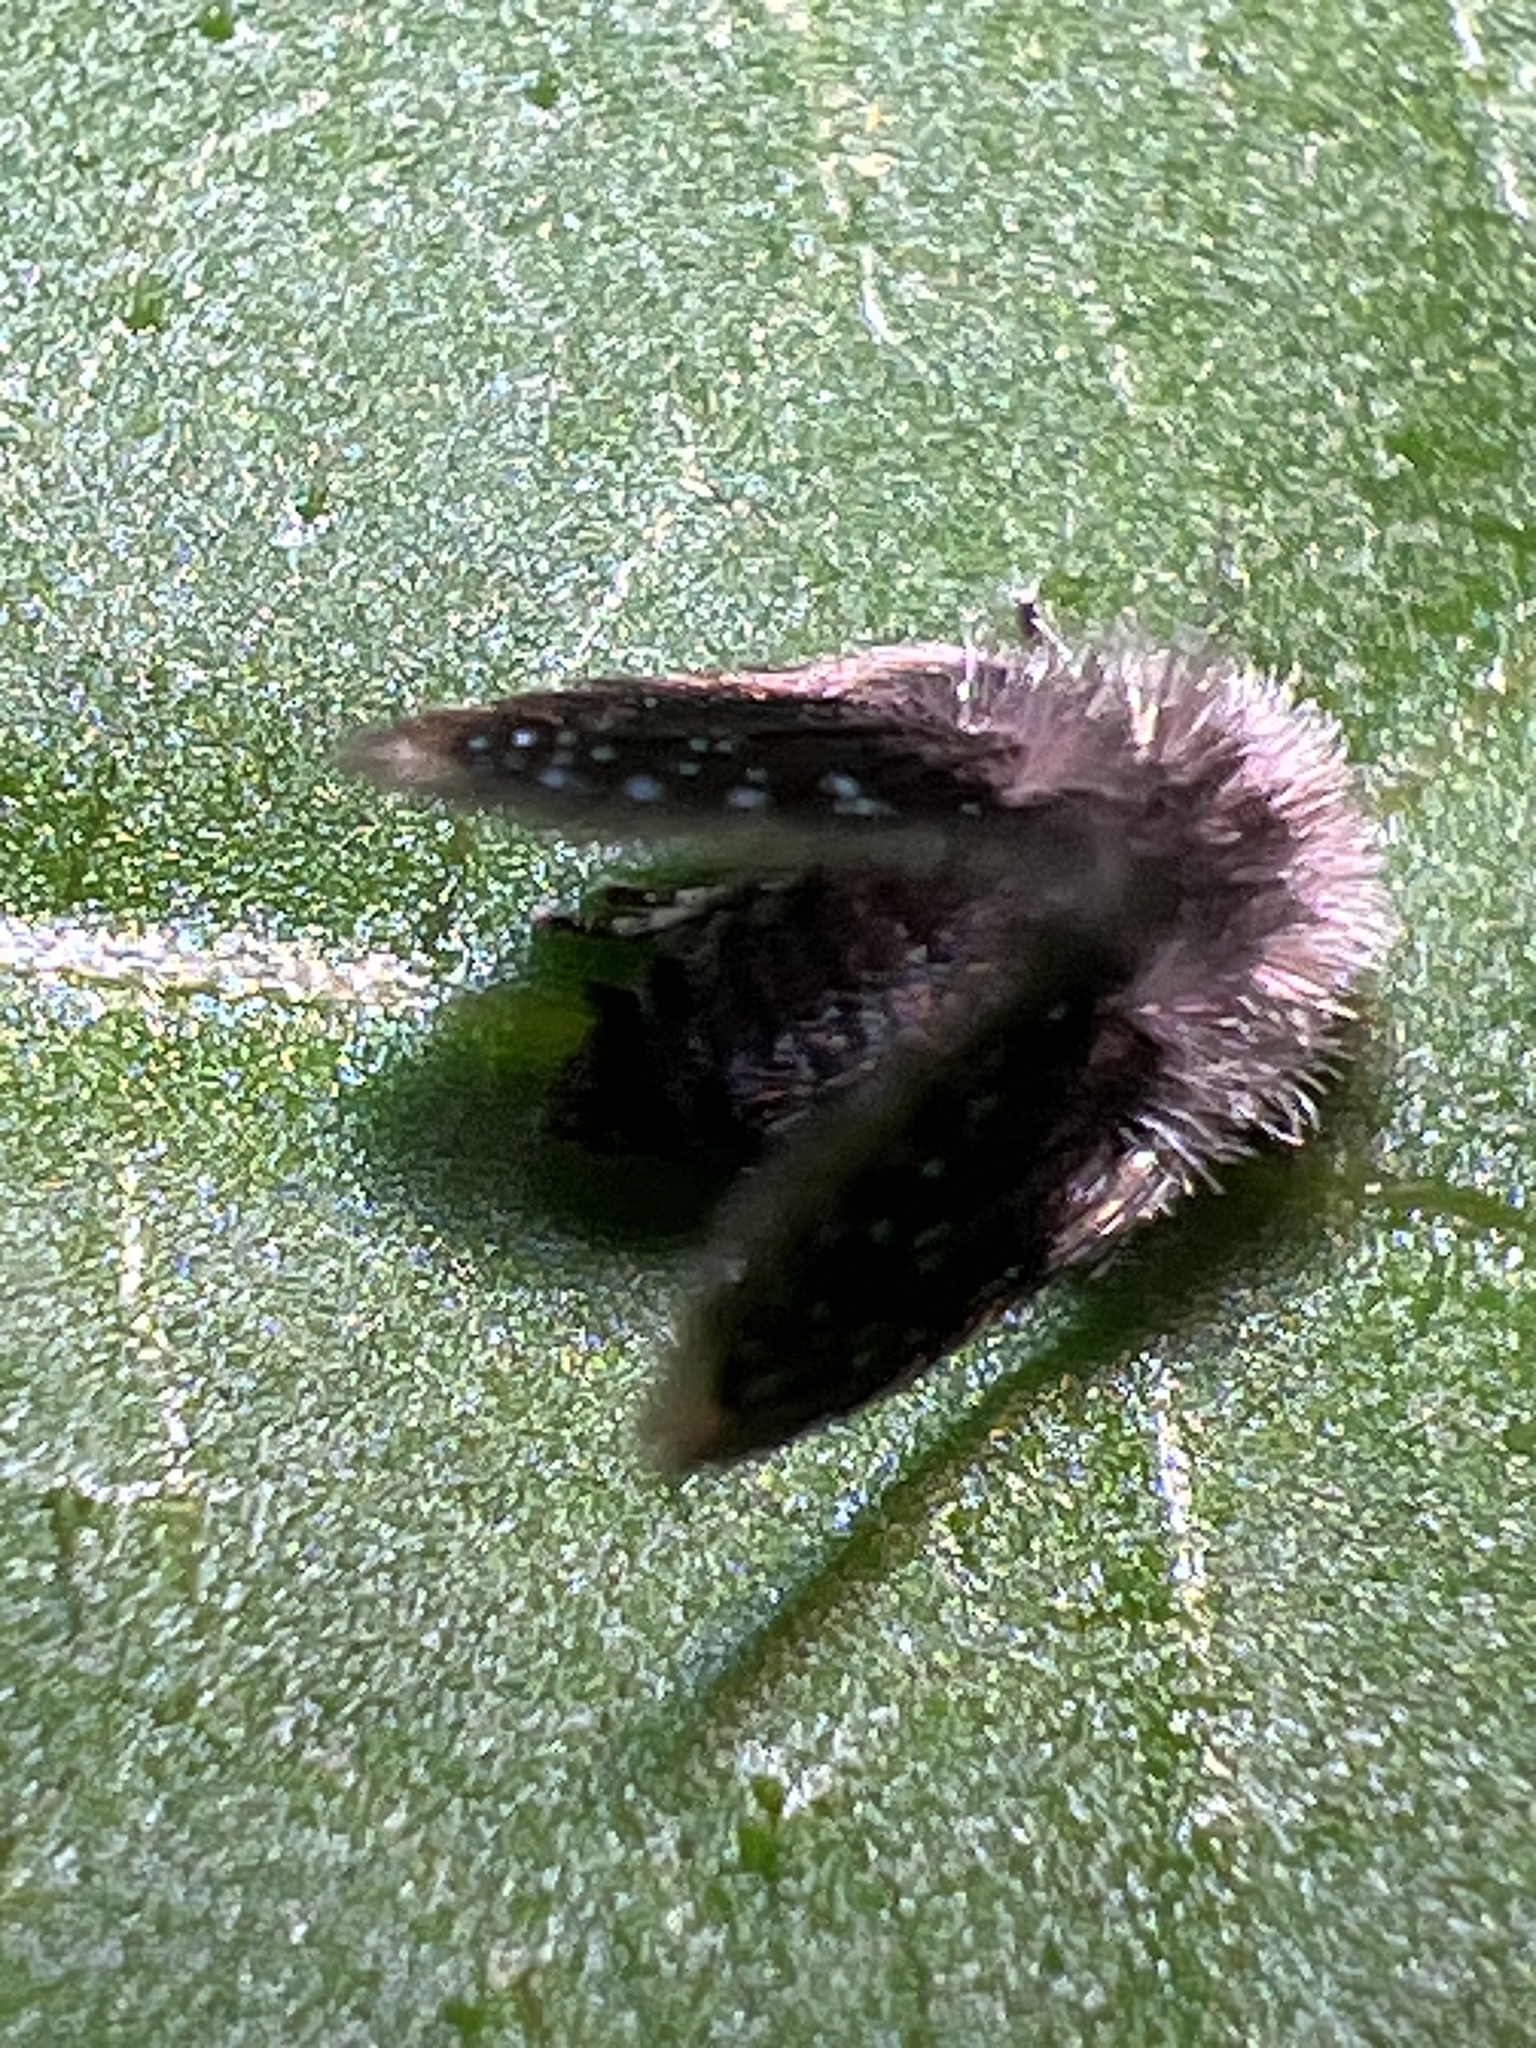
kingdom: Animalia
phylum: Arthropoda
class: Insecta
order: Diptera
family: Psychodidae
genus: Setomima
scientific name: Setomima
